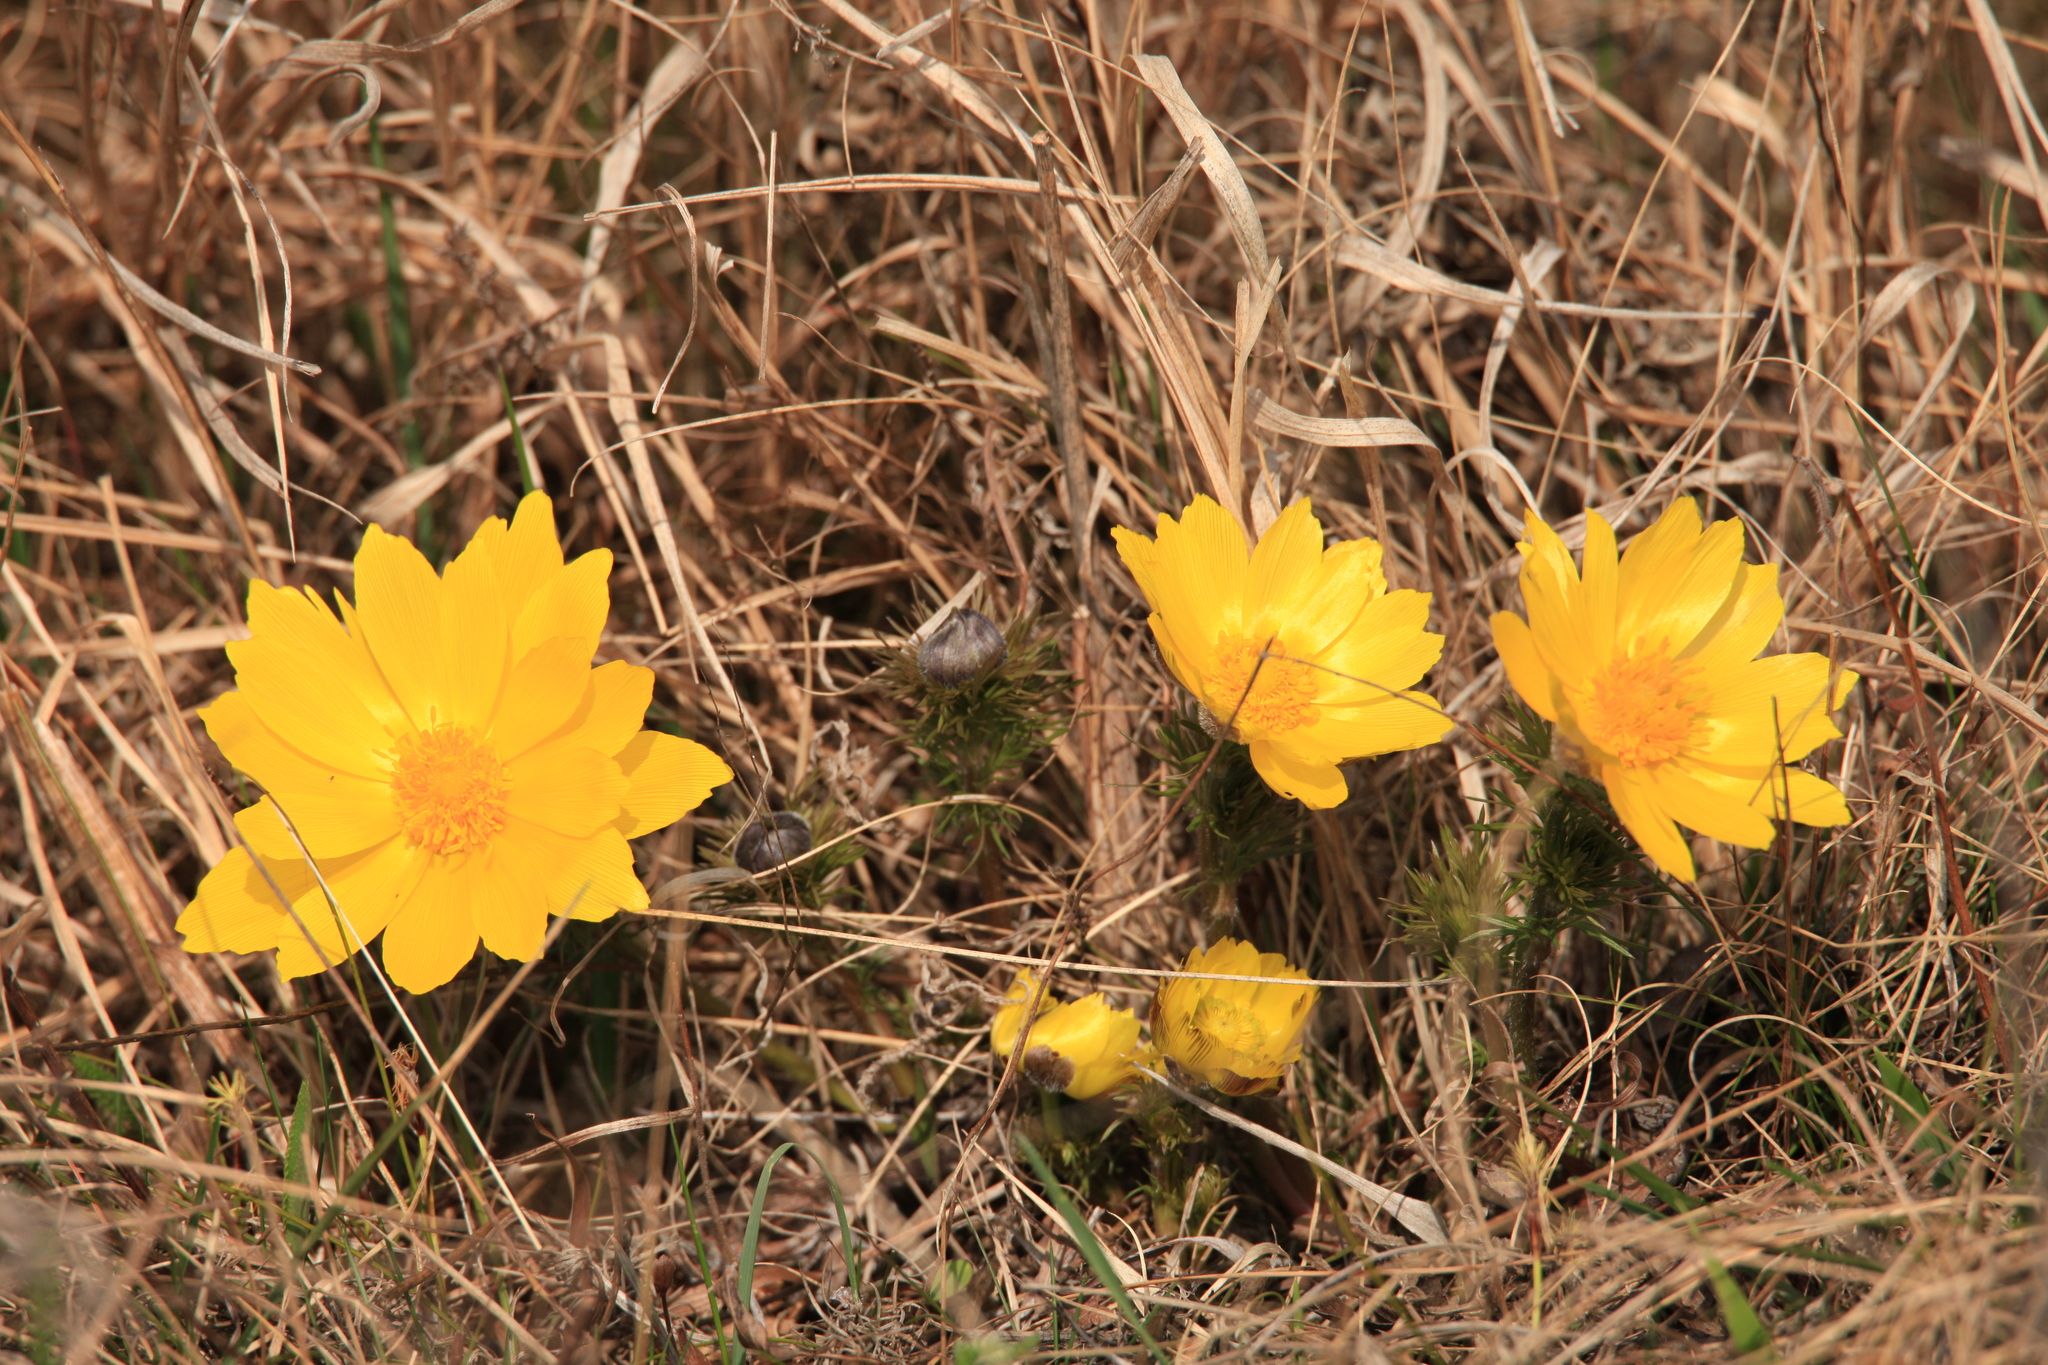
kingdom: Plantae
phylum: Tracheophyta
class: Magnoliopsida
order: Ranunculales
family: Ranunculaceae
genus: Adonis
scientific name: Adonis vernalis
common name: Yellow pheasants-eye
